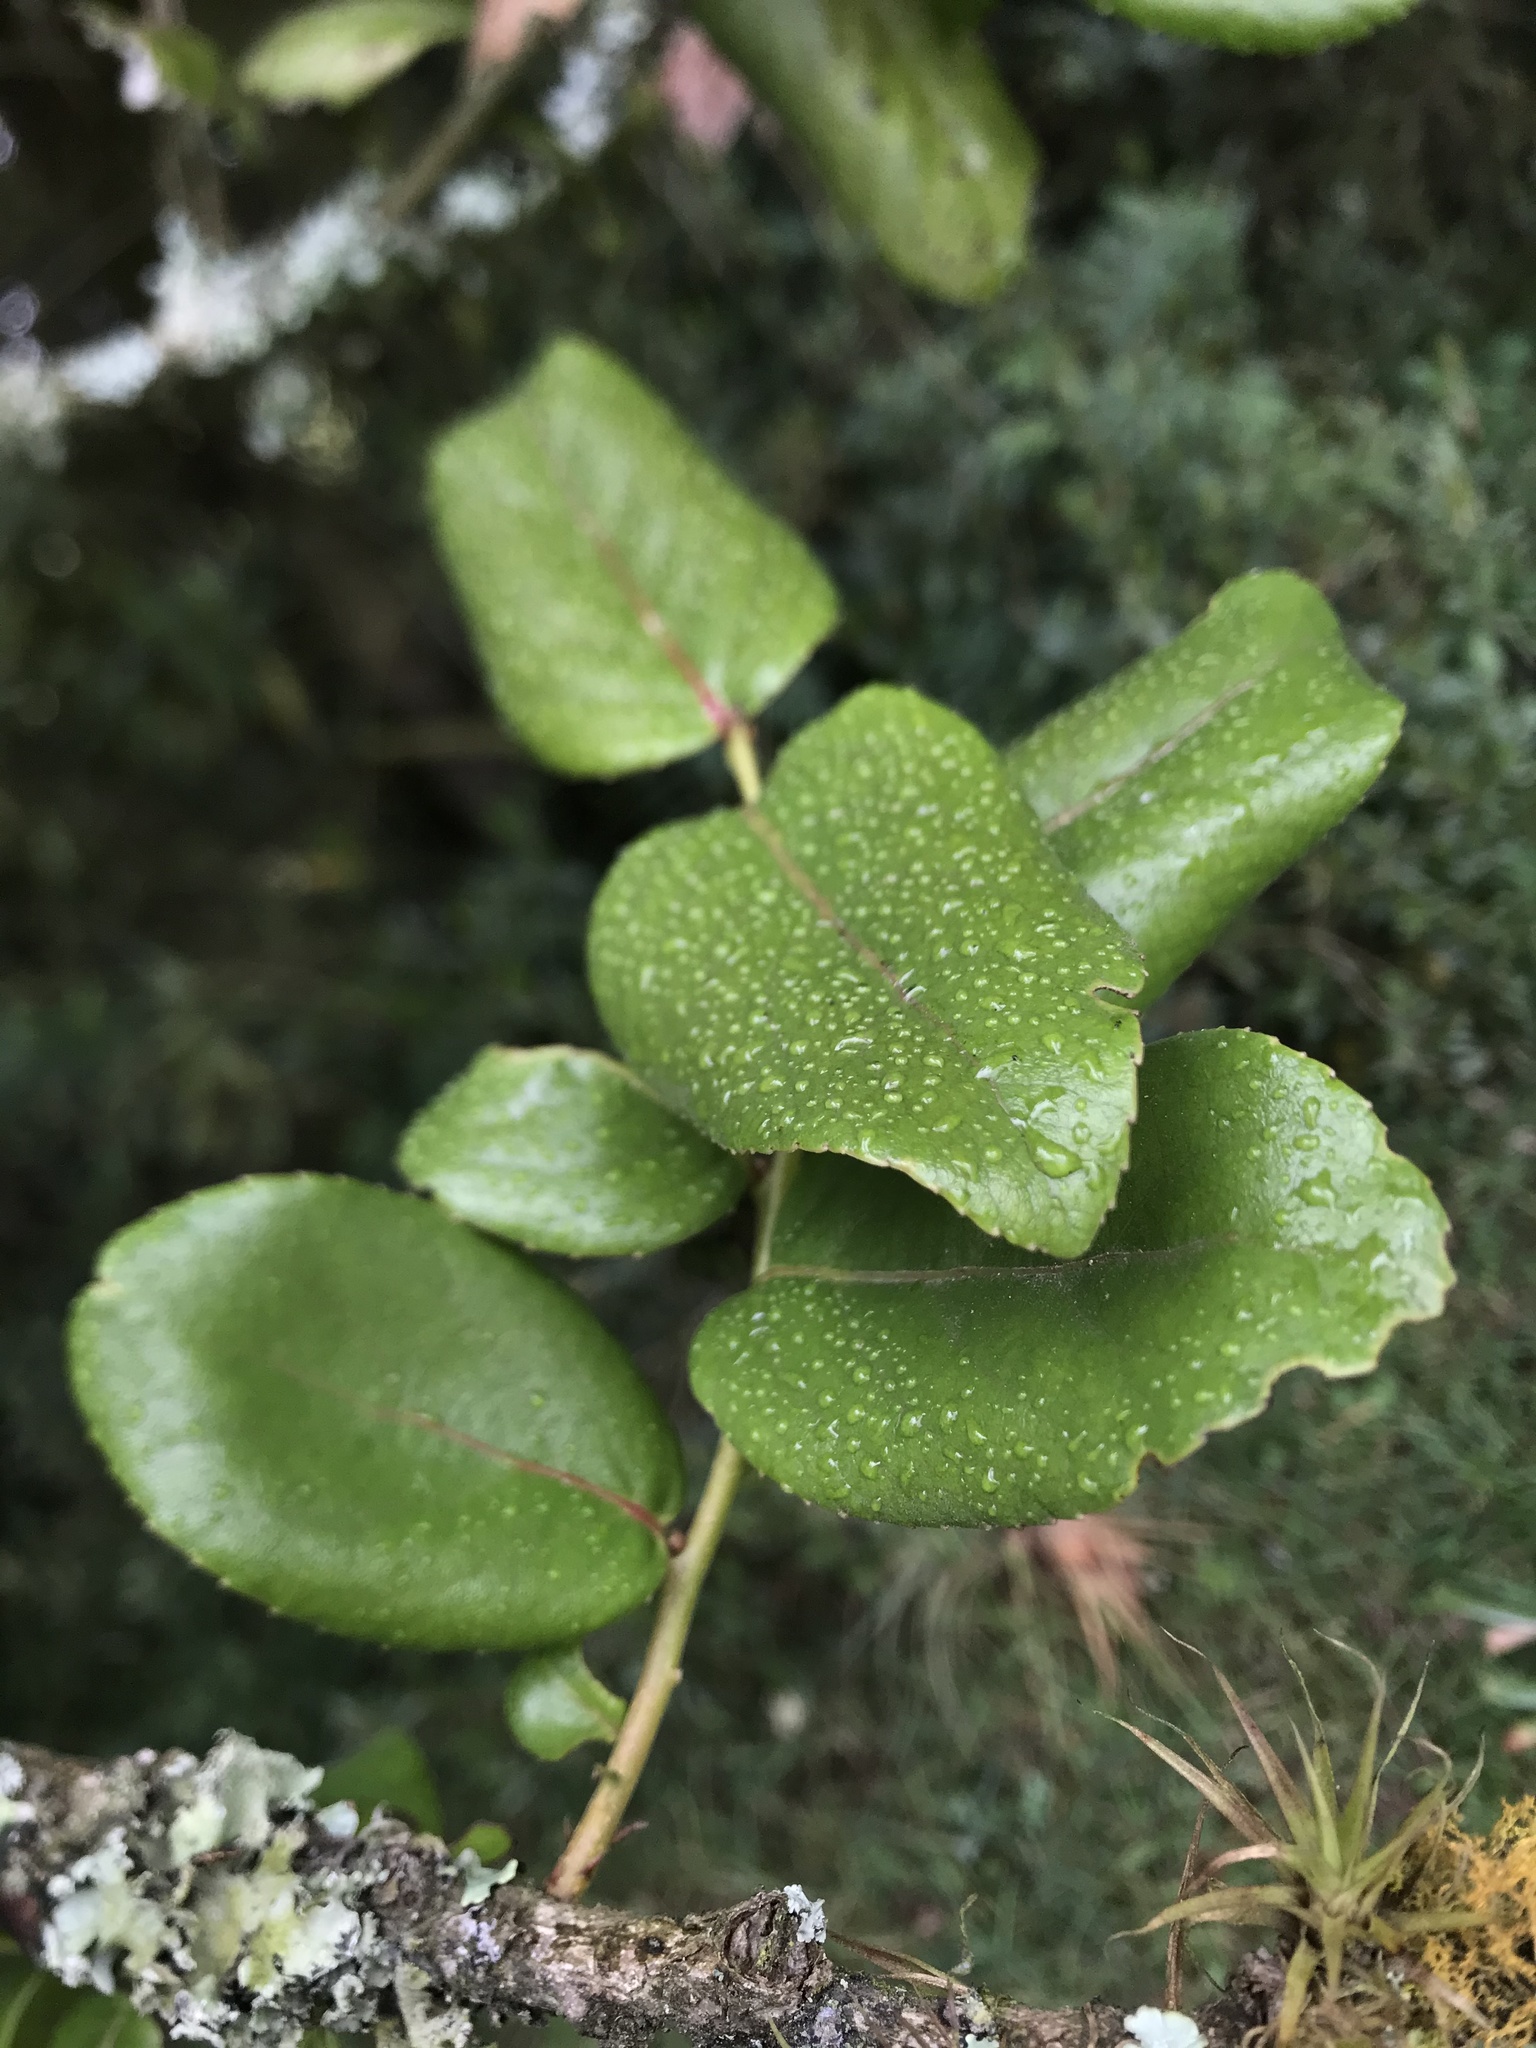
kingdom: Plantae
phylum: Tracheophyta
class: Magnoliopsida
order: Malpighiales
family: Salicaceae
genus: Xylosma
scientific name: Xylosma spiculifera
